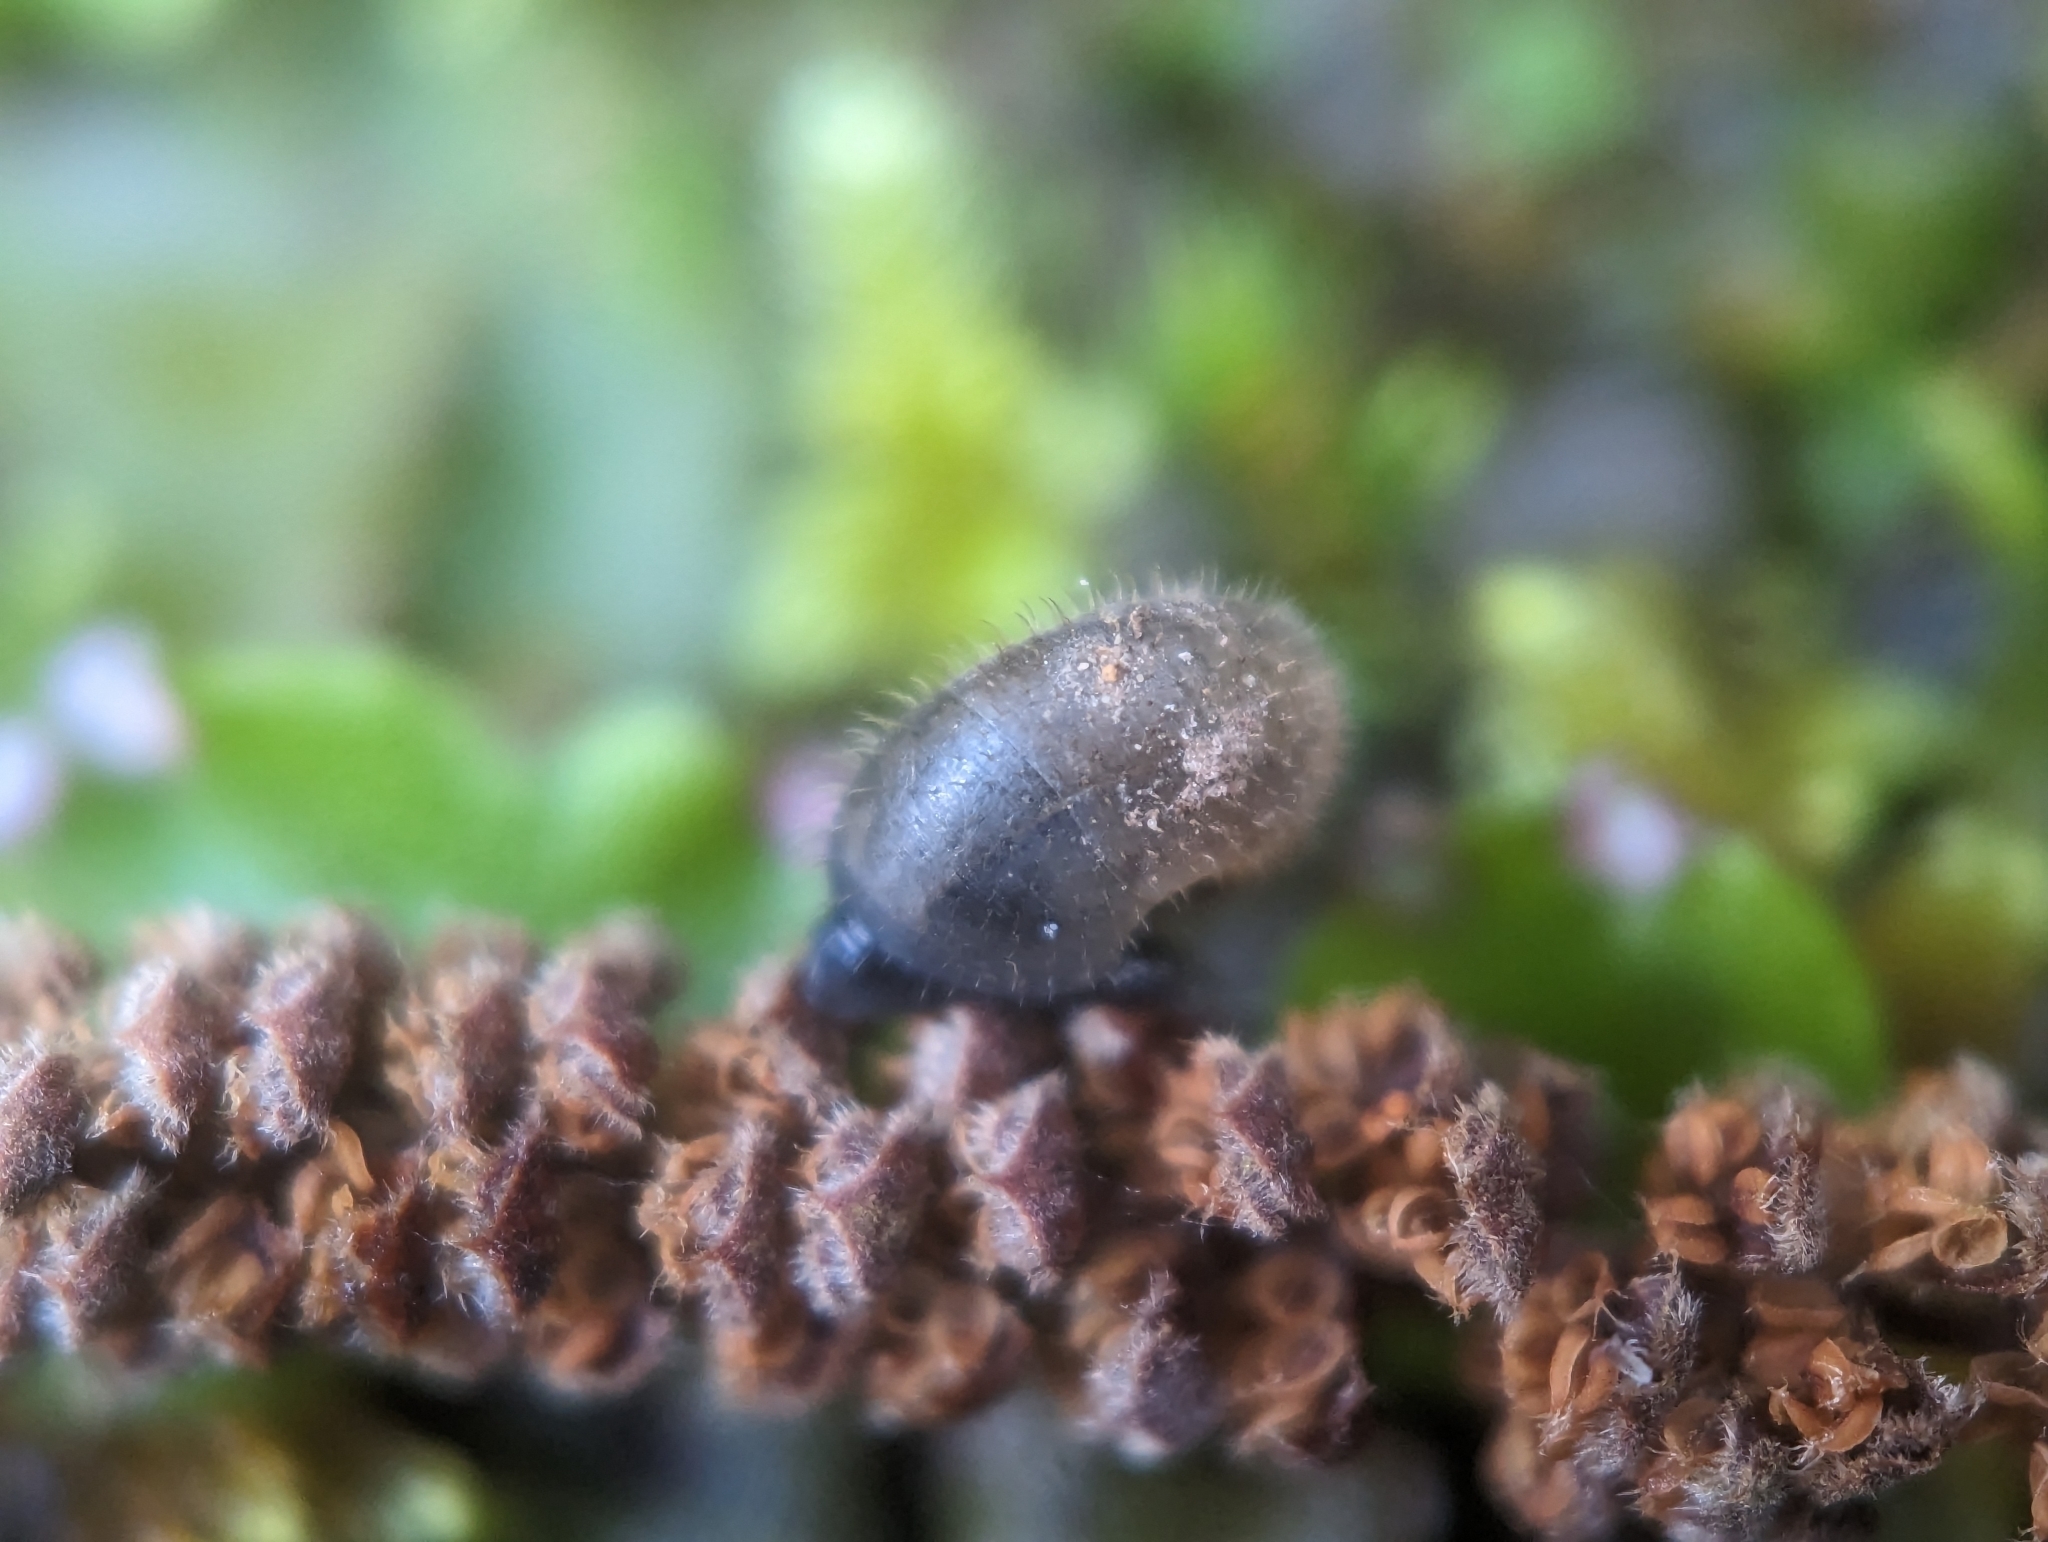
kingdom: Animalia
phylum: Mollusca
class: Gastropoda
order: Stylommatophora
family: Hygromiidae
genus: Trochulus
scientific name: Trochulus hispidus
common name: Hairy snail
